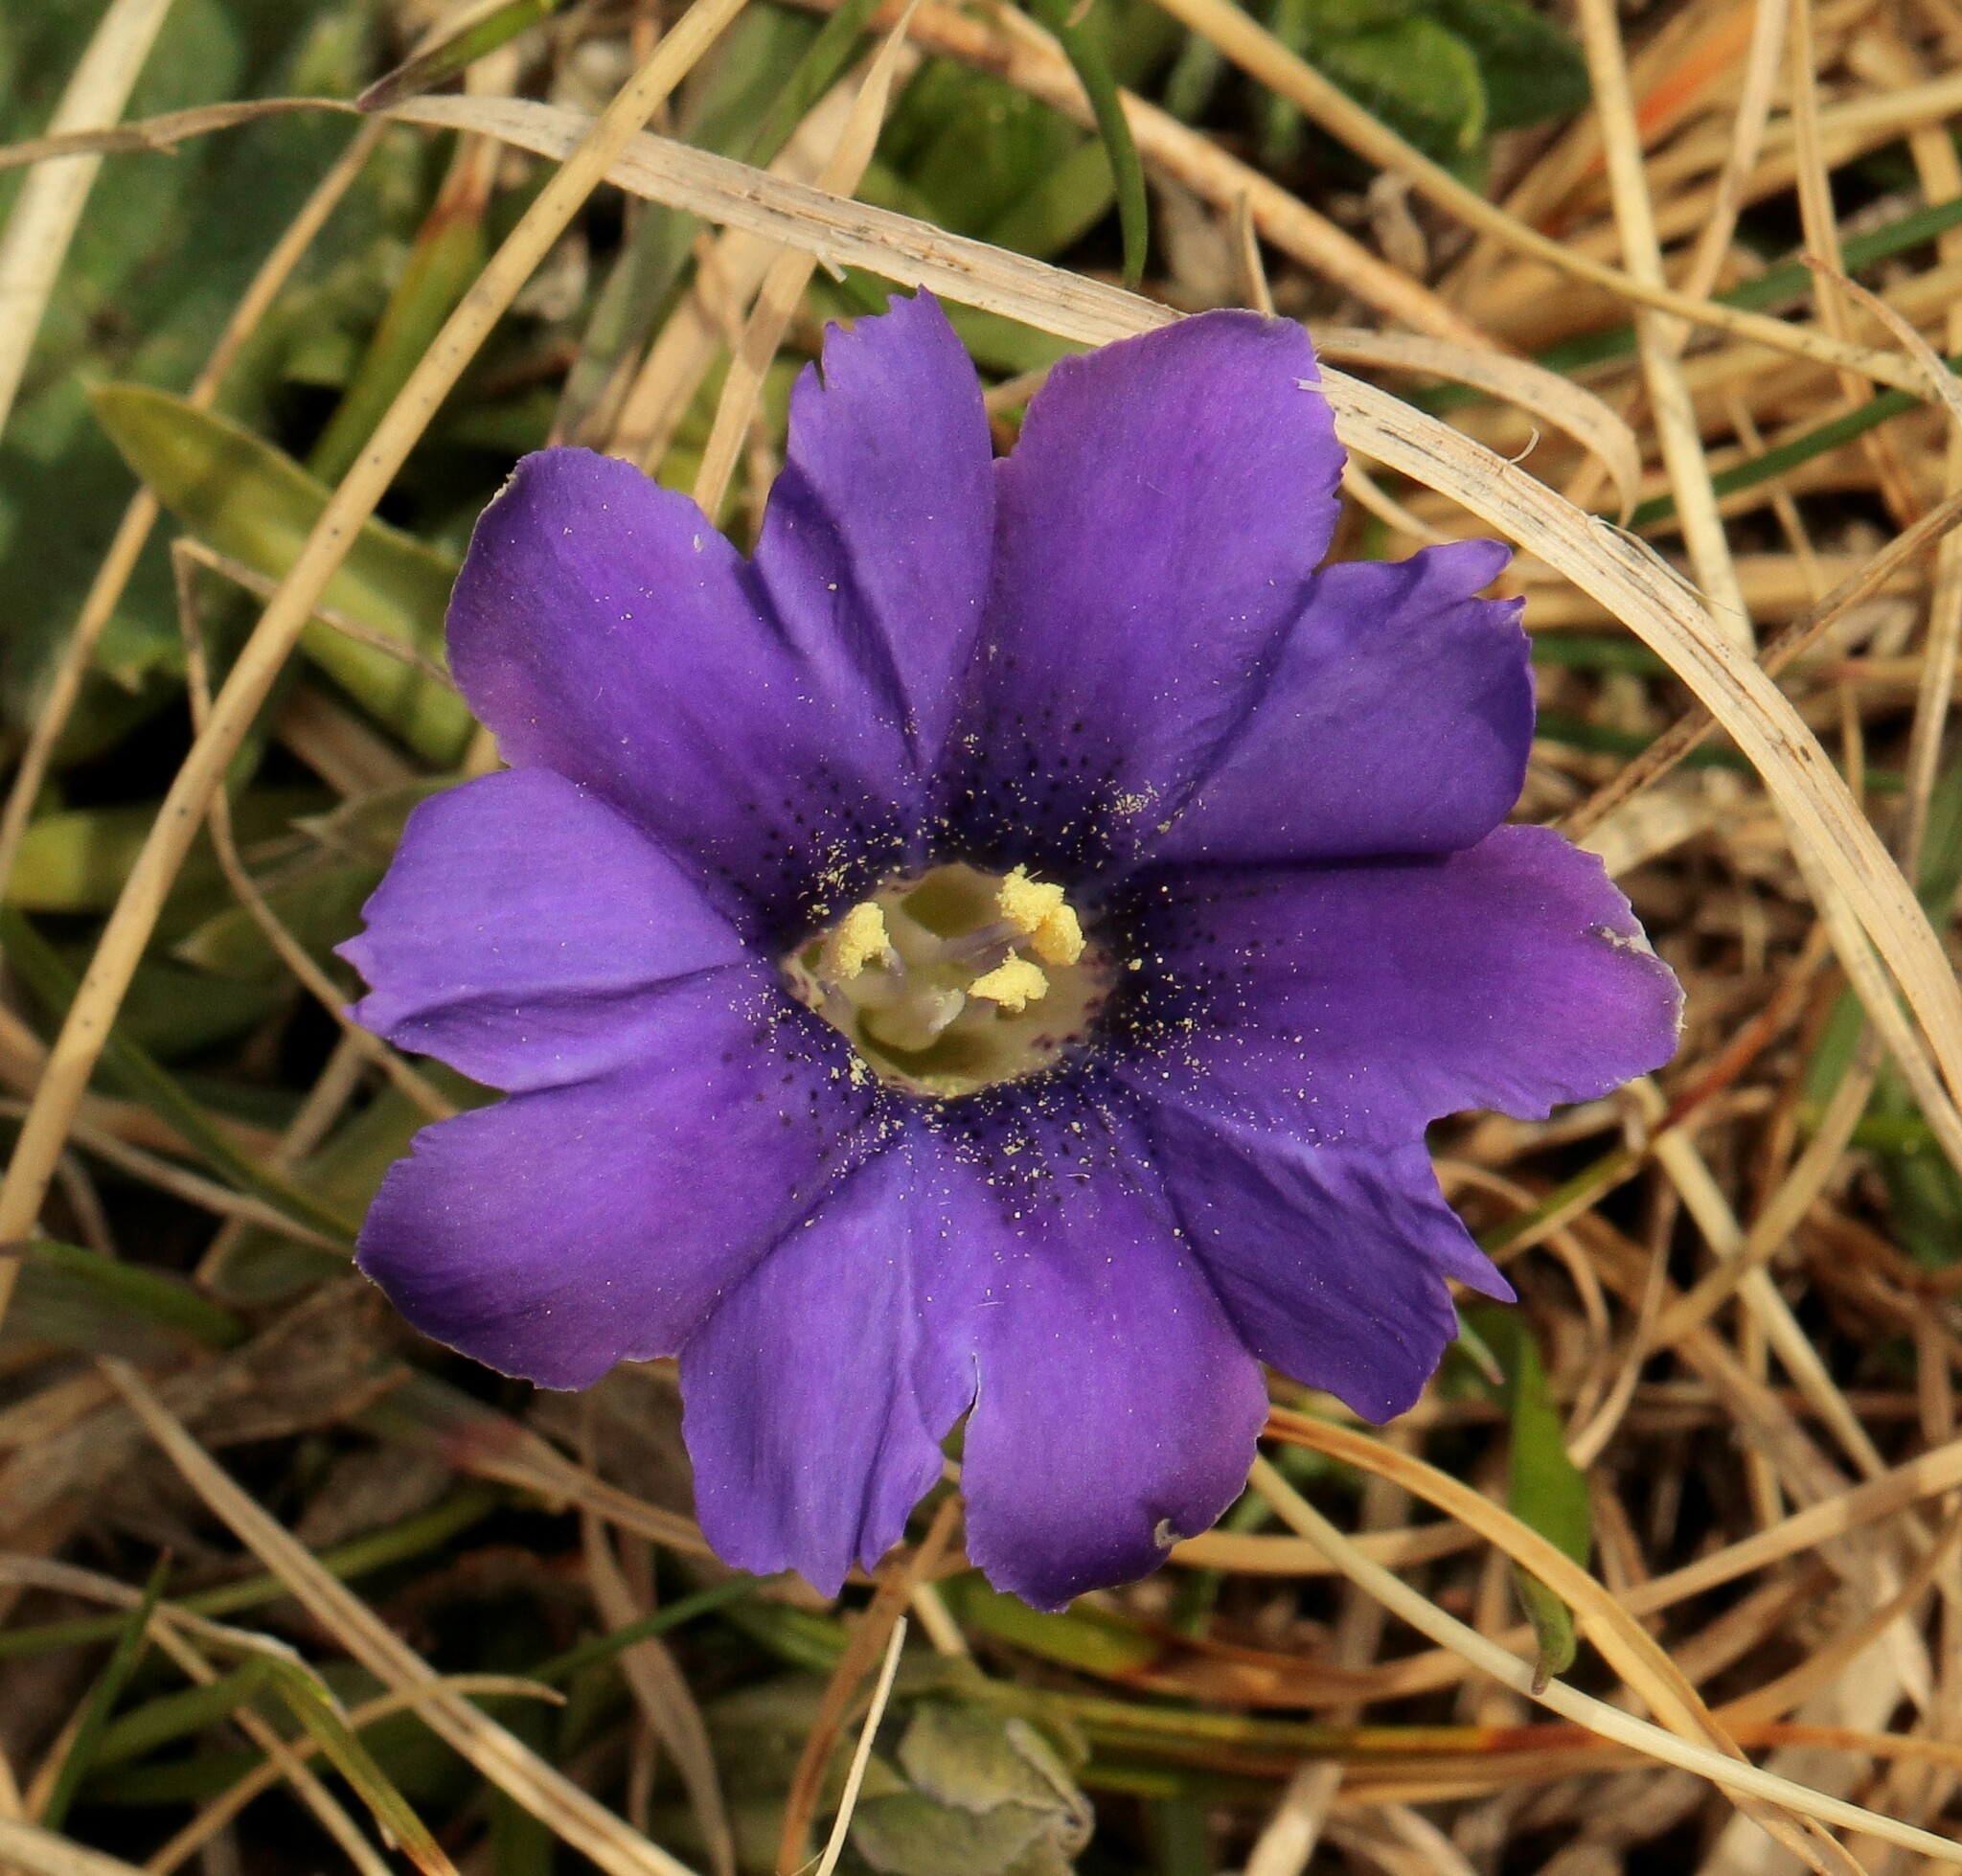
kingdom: Plantae
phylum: Tracheophyta
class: Magnoliopsida
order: Gentianales
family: Gentianaceae
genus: Gentiana
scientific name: Gentiana dshimilensis
